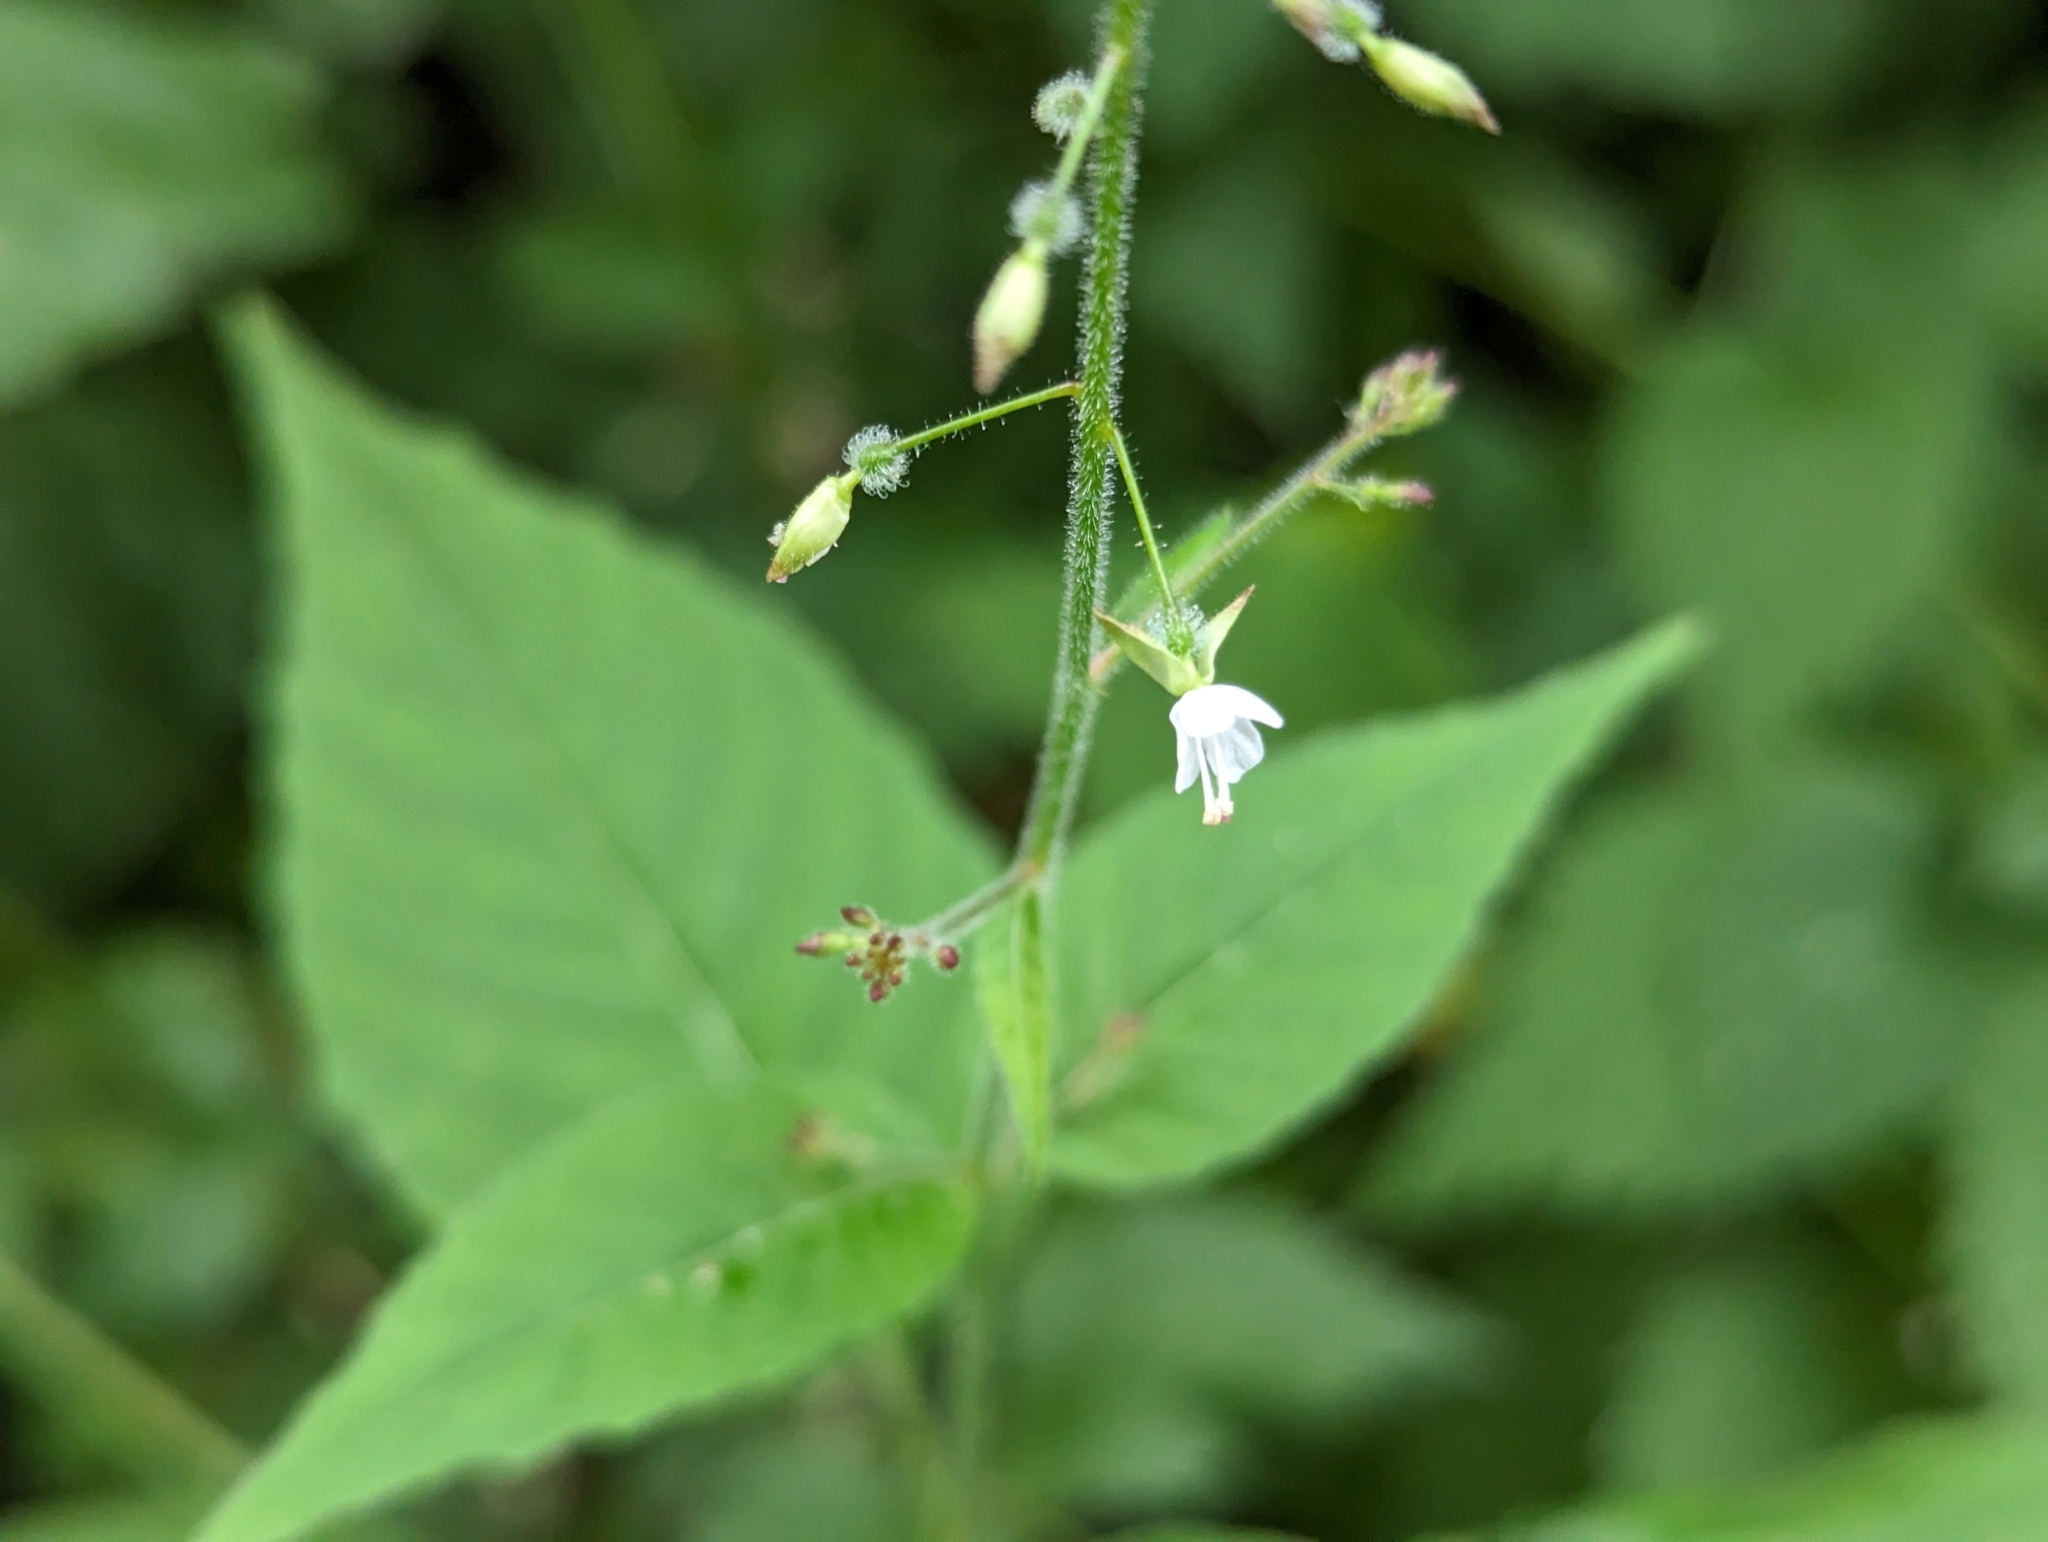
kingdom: Plantae
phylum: Tracheophyta
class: Magnoliopsida
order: Myrtales
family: Onagraceae
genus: Circaea
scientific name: Circaea lutetiana
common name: Enchanter's-nightshade
